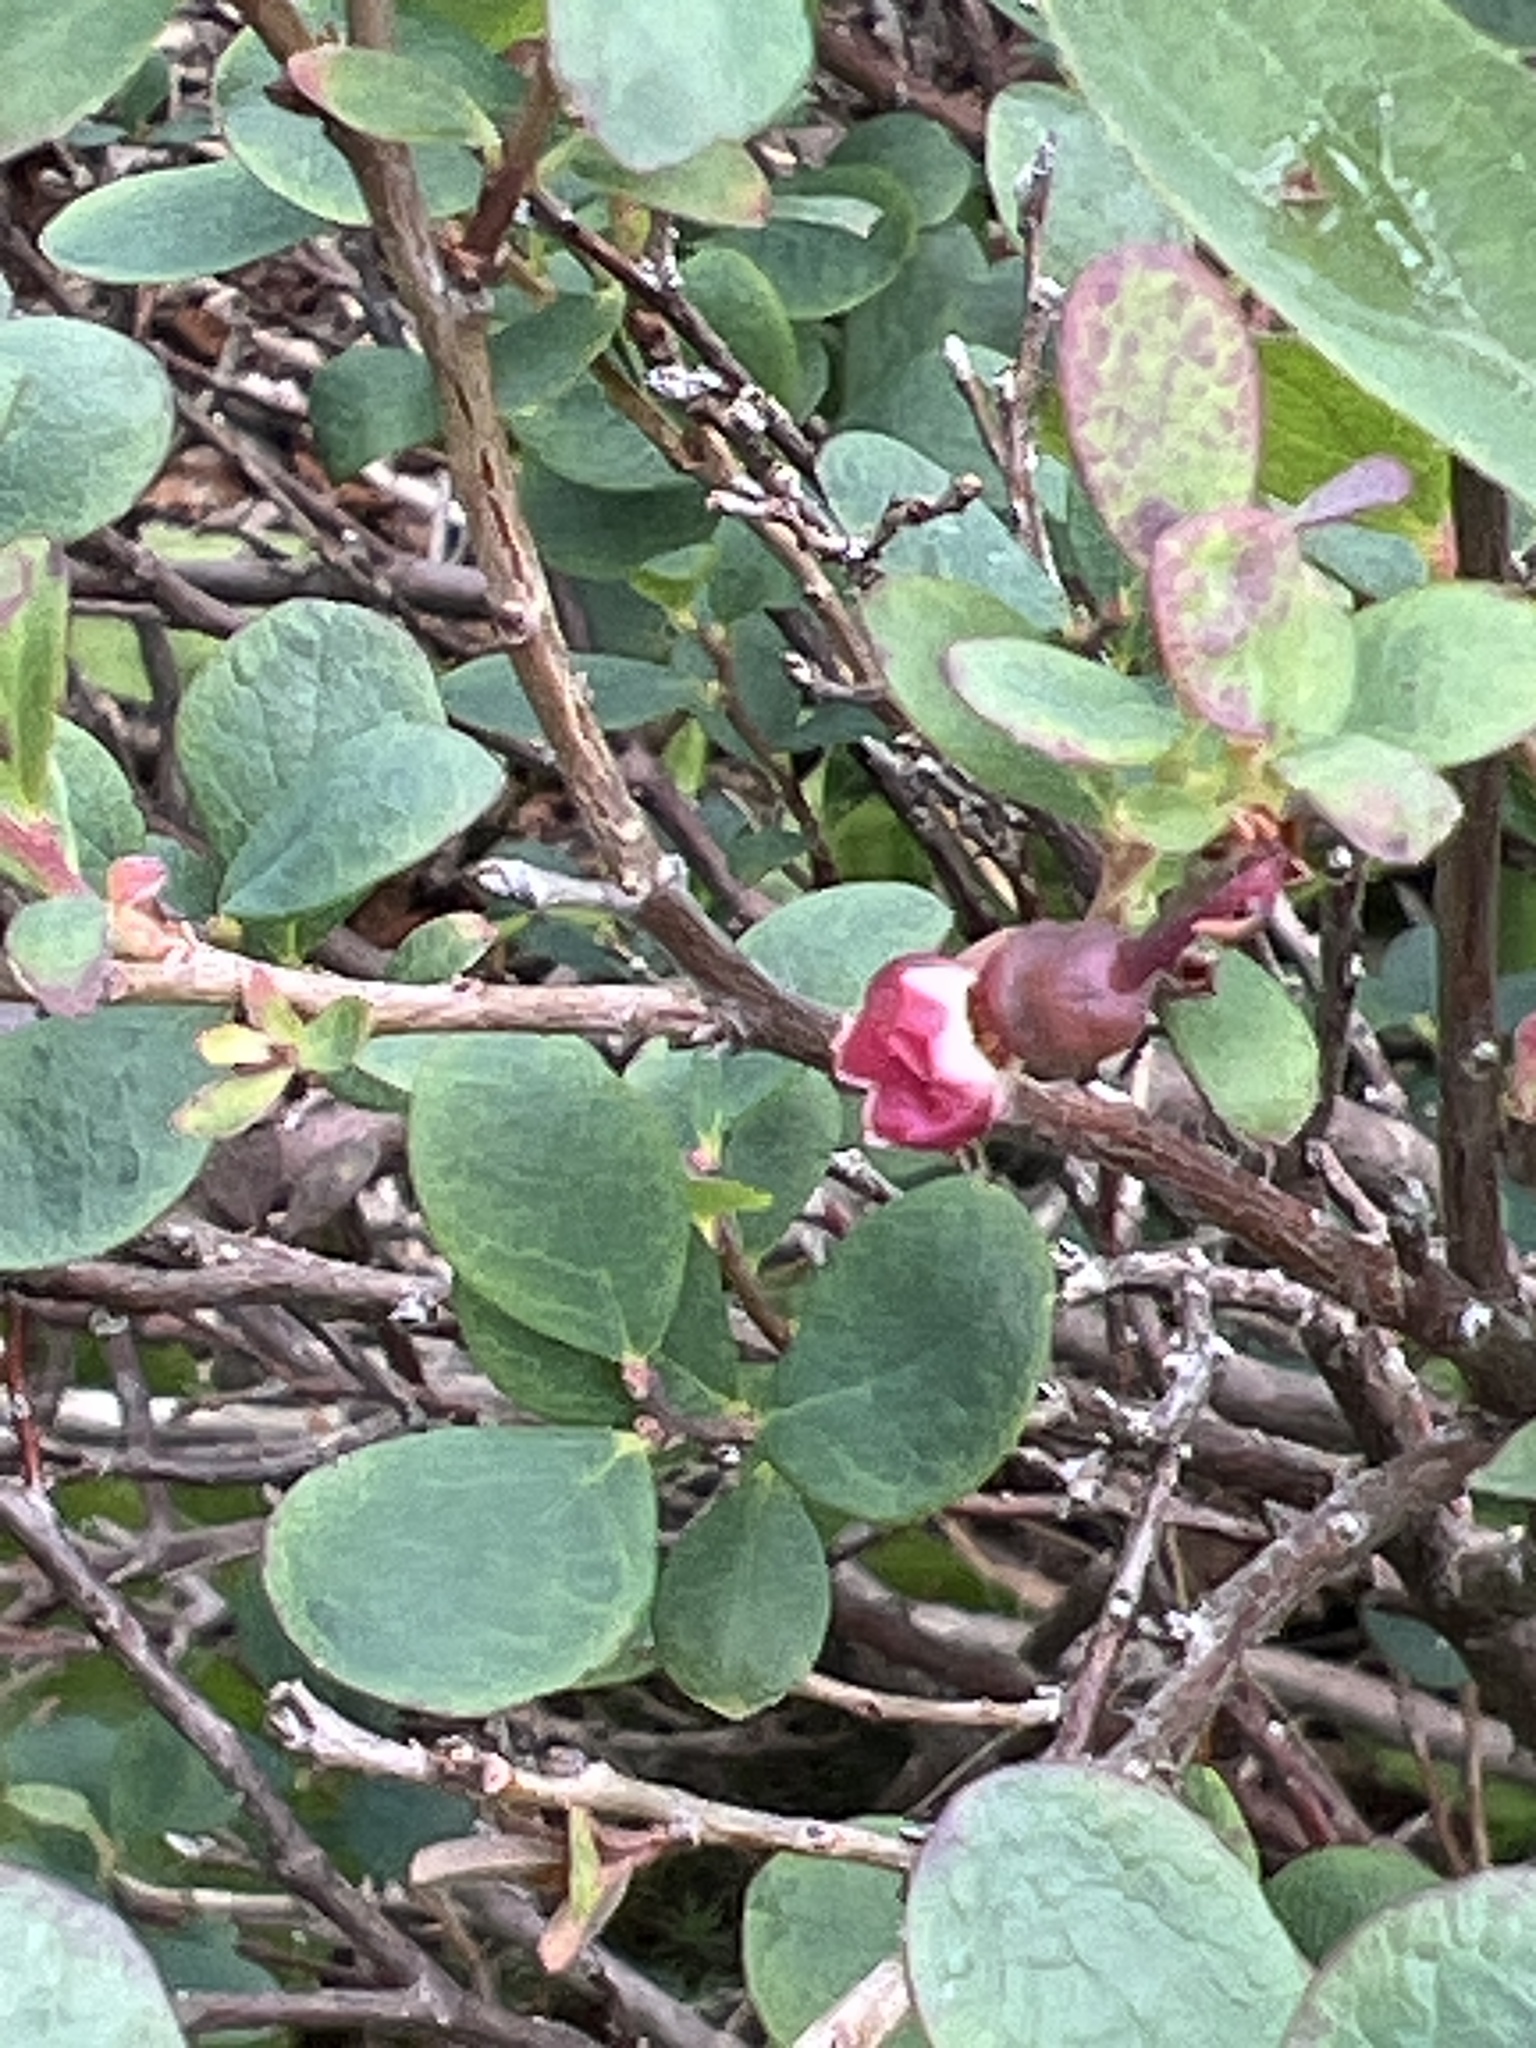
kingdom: Plantae
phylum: Tracheophyta
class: Magnoliopsida
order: Ericales
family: Ericaceae
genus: Vaccinium
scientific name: Vaccinium uliginosum
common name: Bog bilberry
